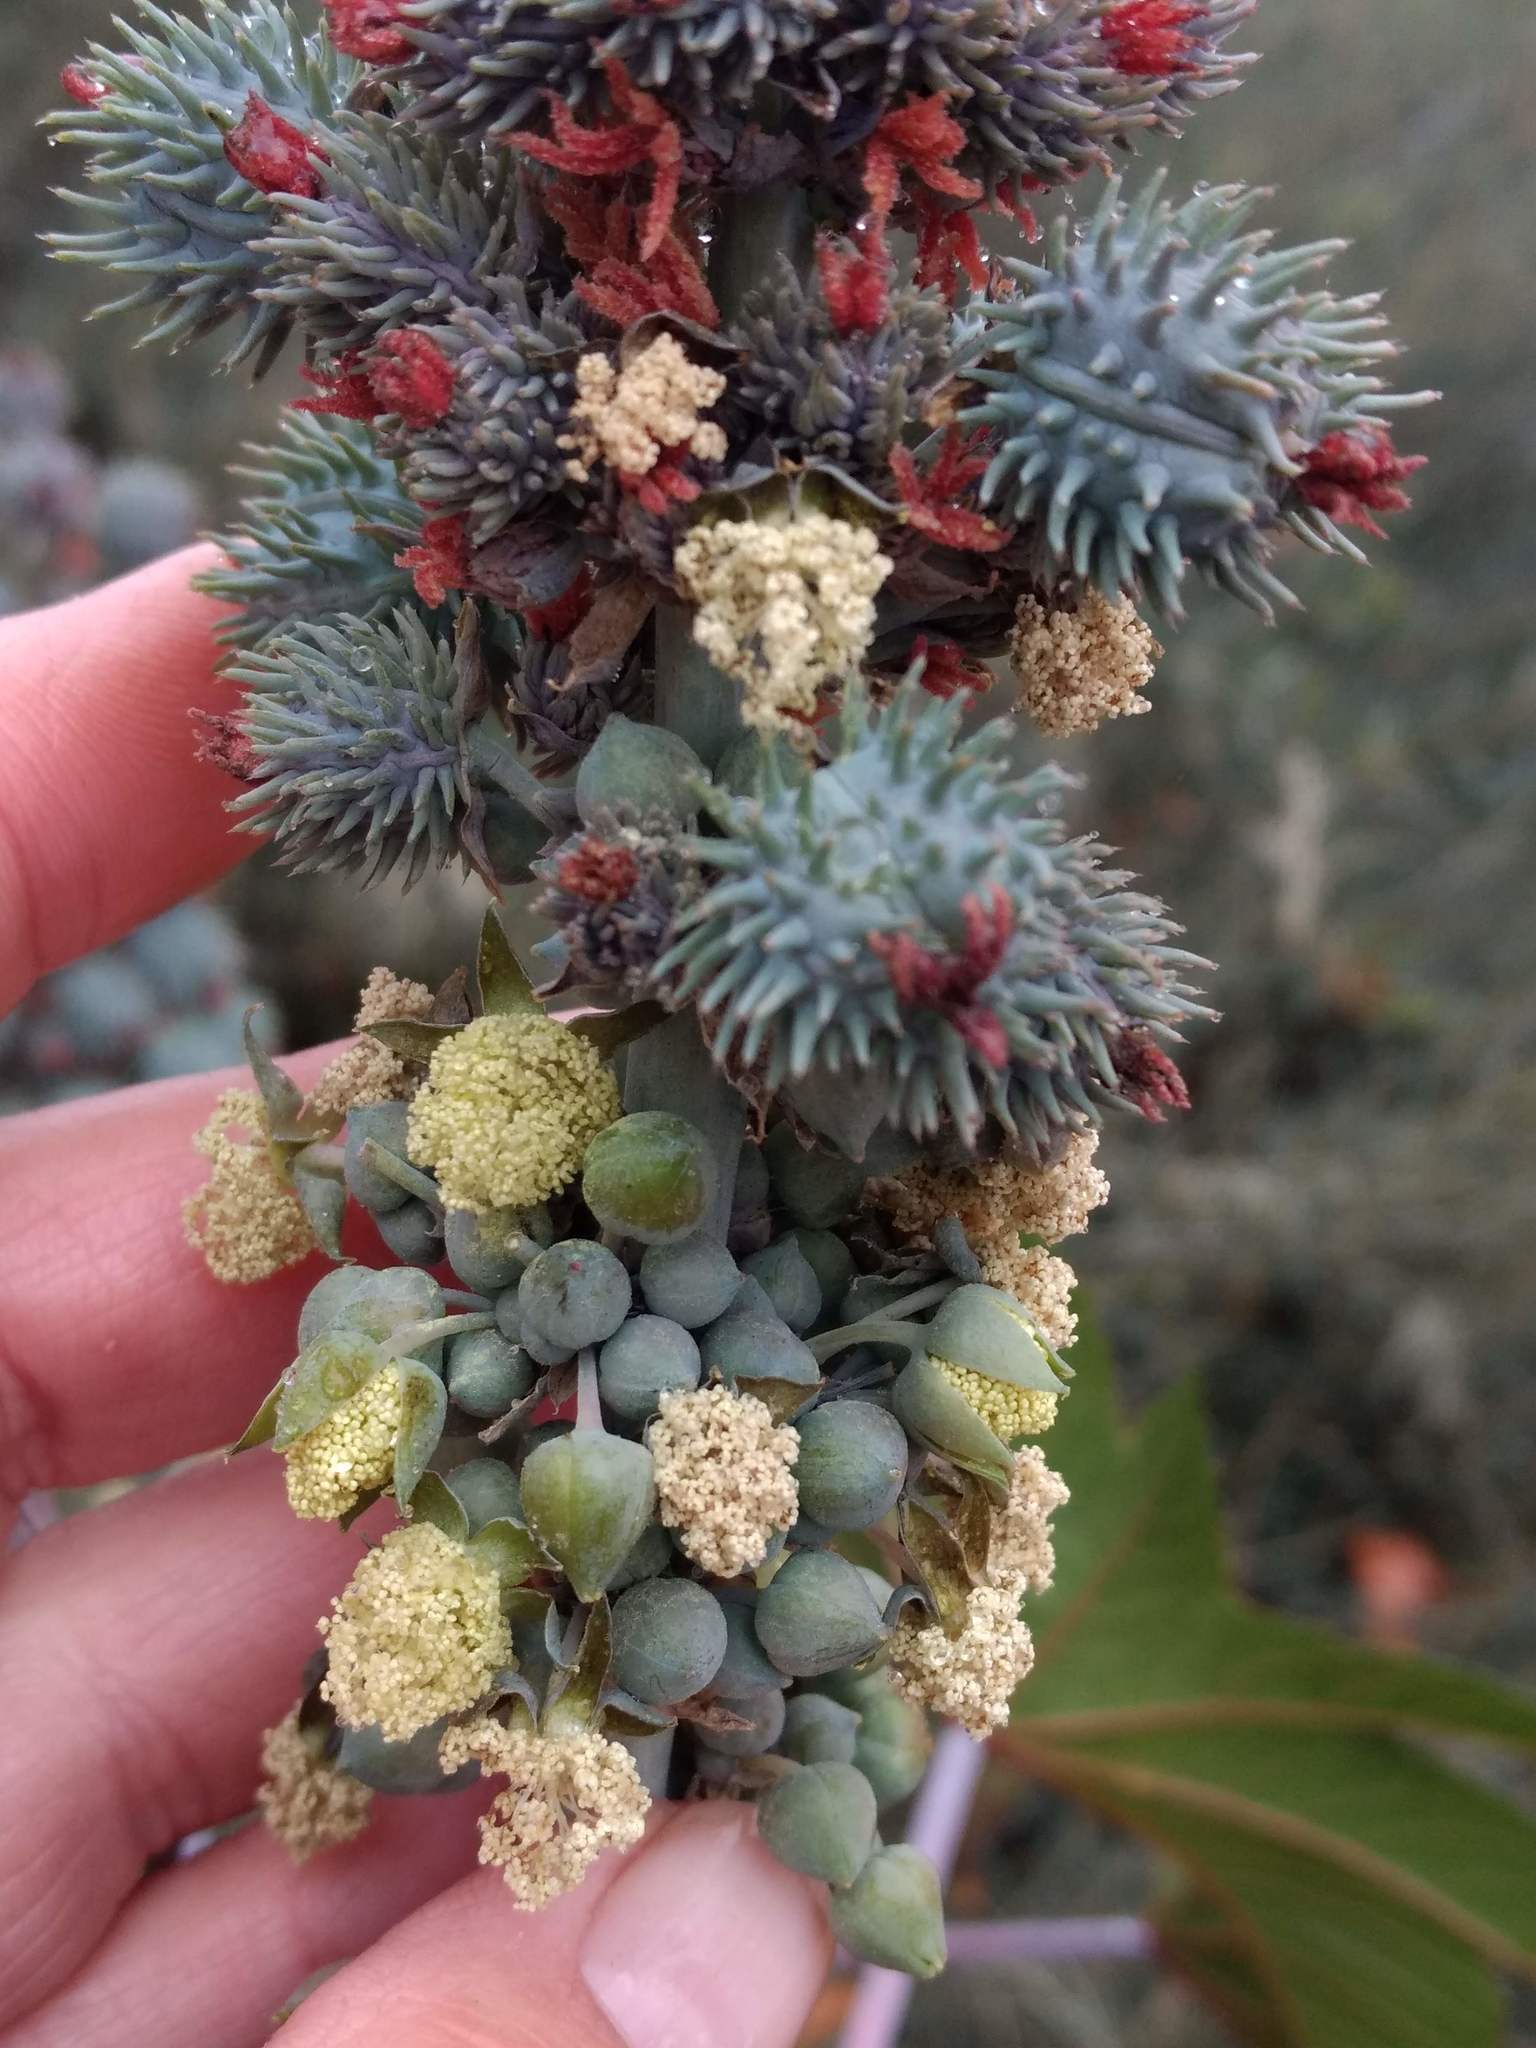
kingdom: Plantae
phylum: Tracheophyta
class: Magnoliopsida
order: Malpighiales
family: Euphorbiaceae
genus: Ricinus
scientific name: Ricinus communis
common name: Castor-oil-plant
